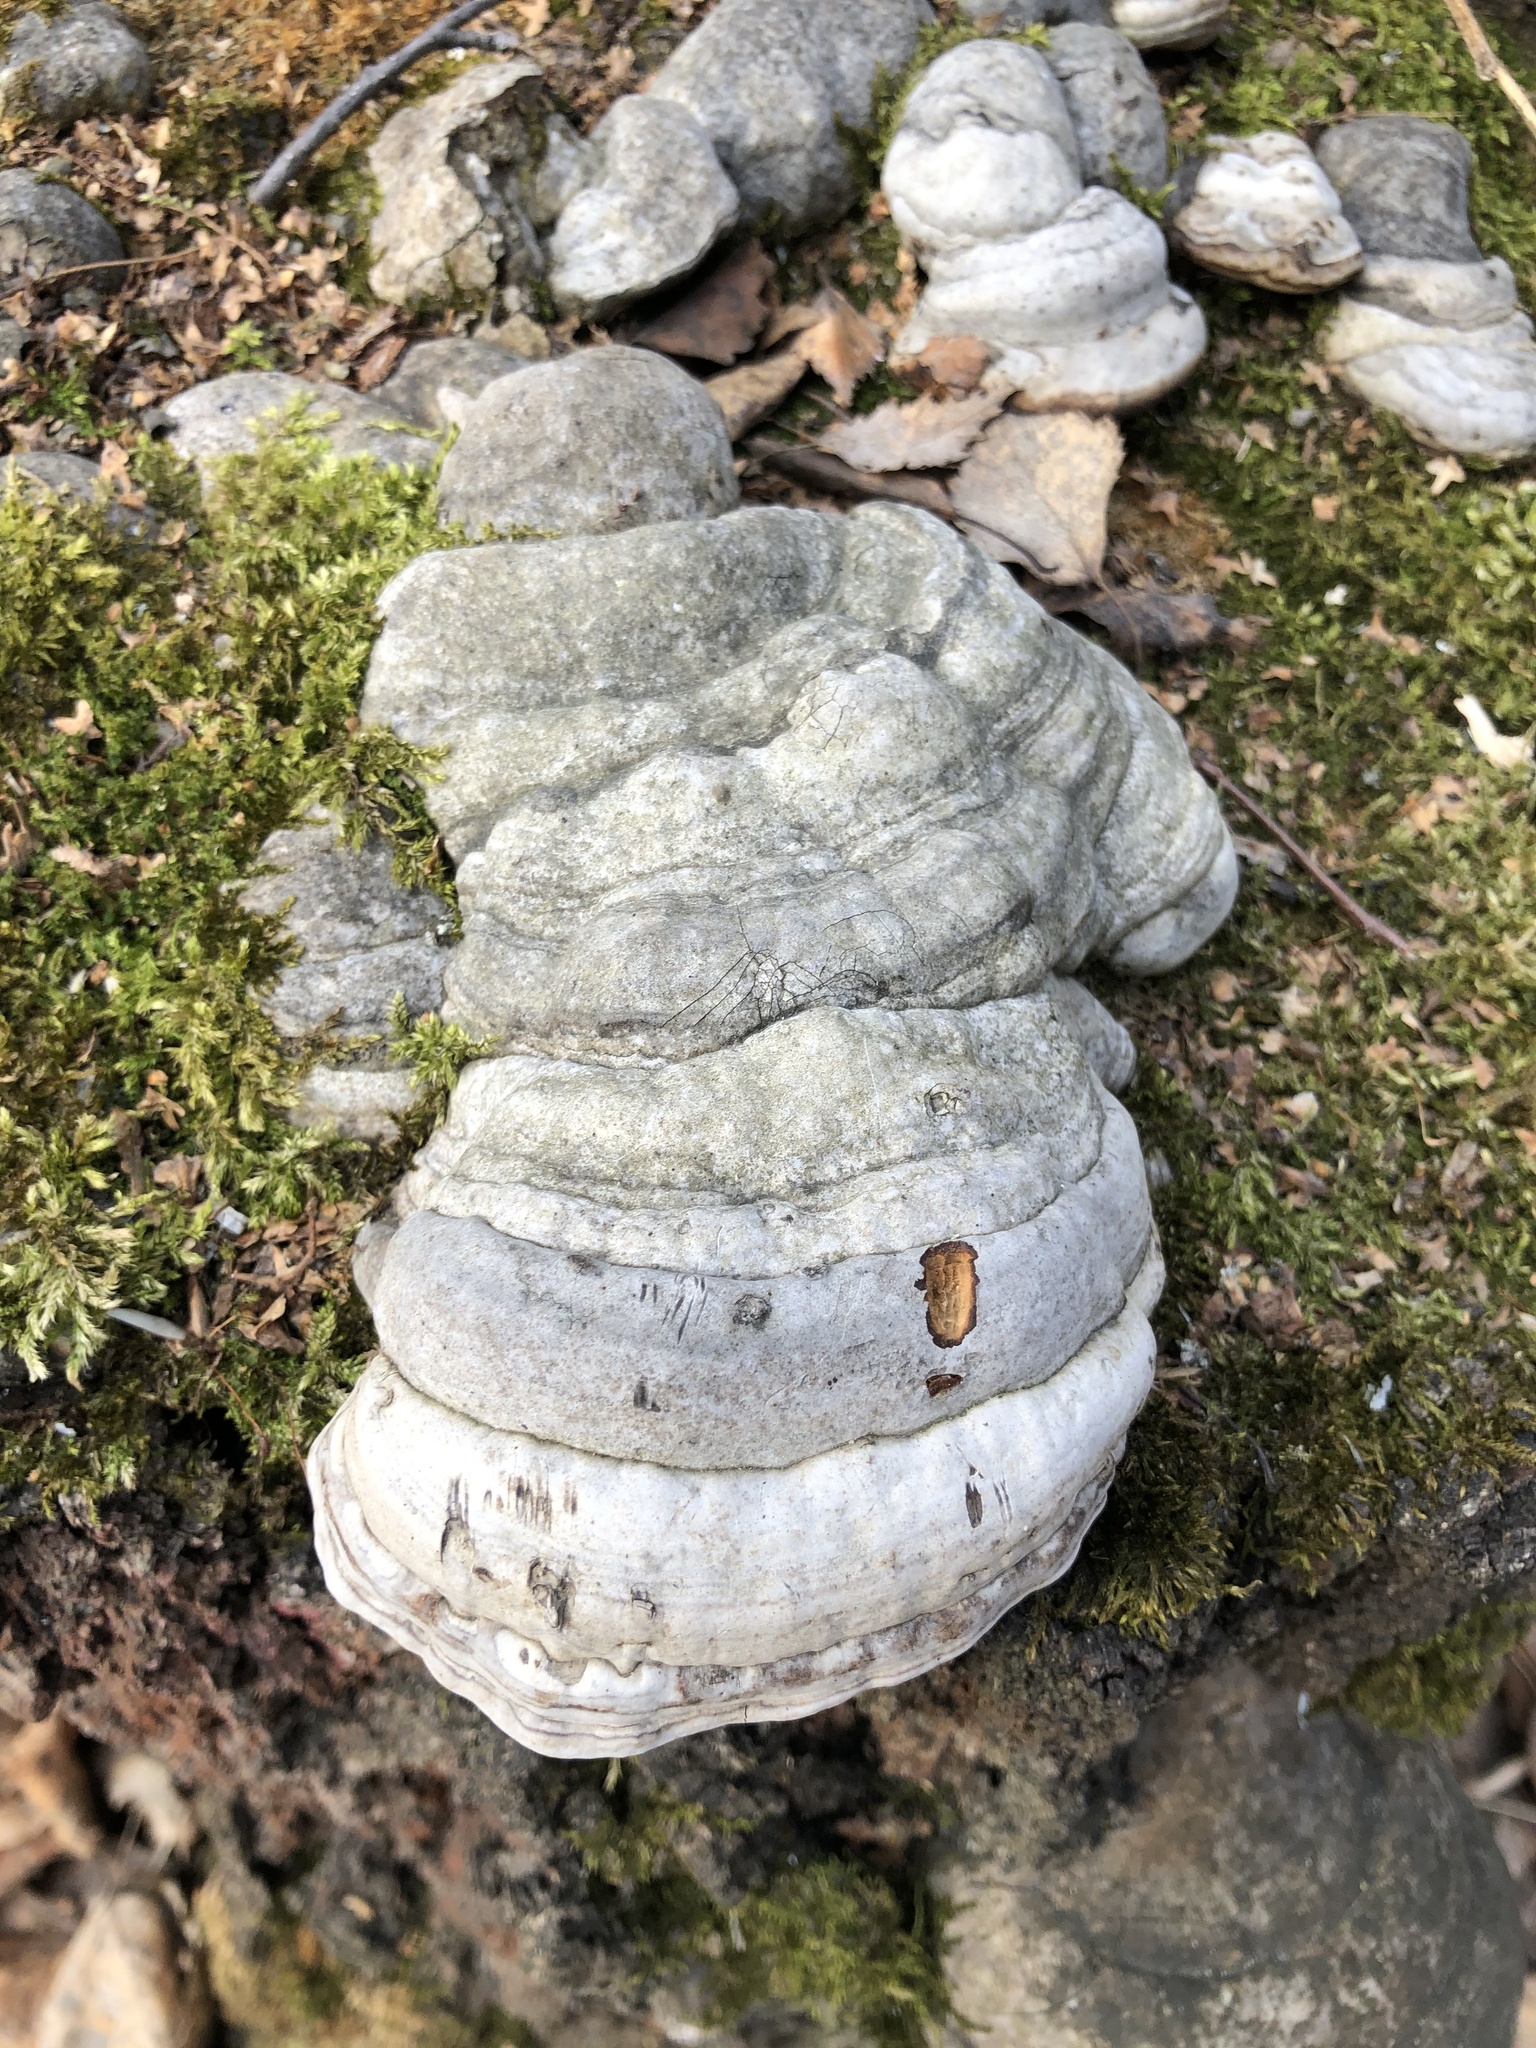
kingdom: Fungi
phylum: Basidiomycota
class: Agaricomycetes
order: Polyporales
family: Polyporaceae
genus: Fomes
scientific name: Fomes fomentarius
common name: Hoof fungus
